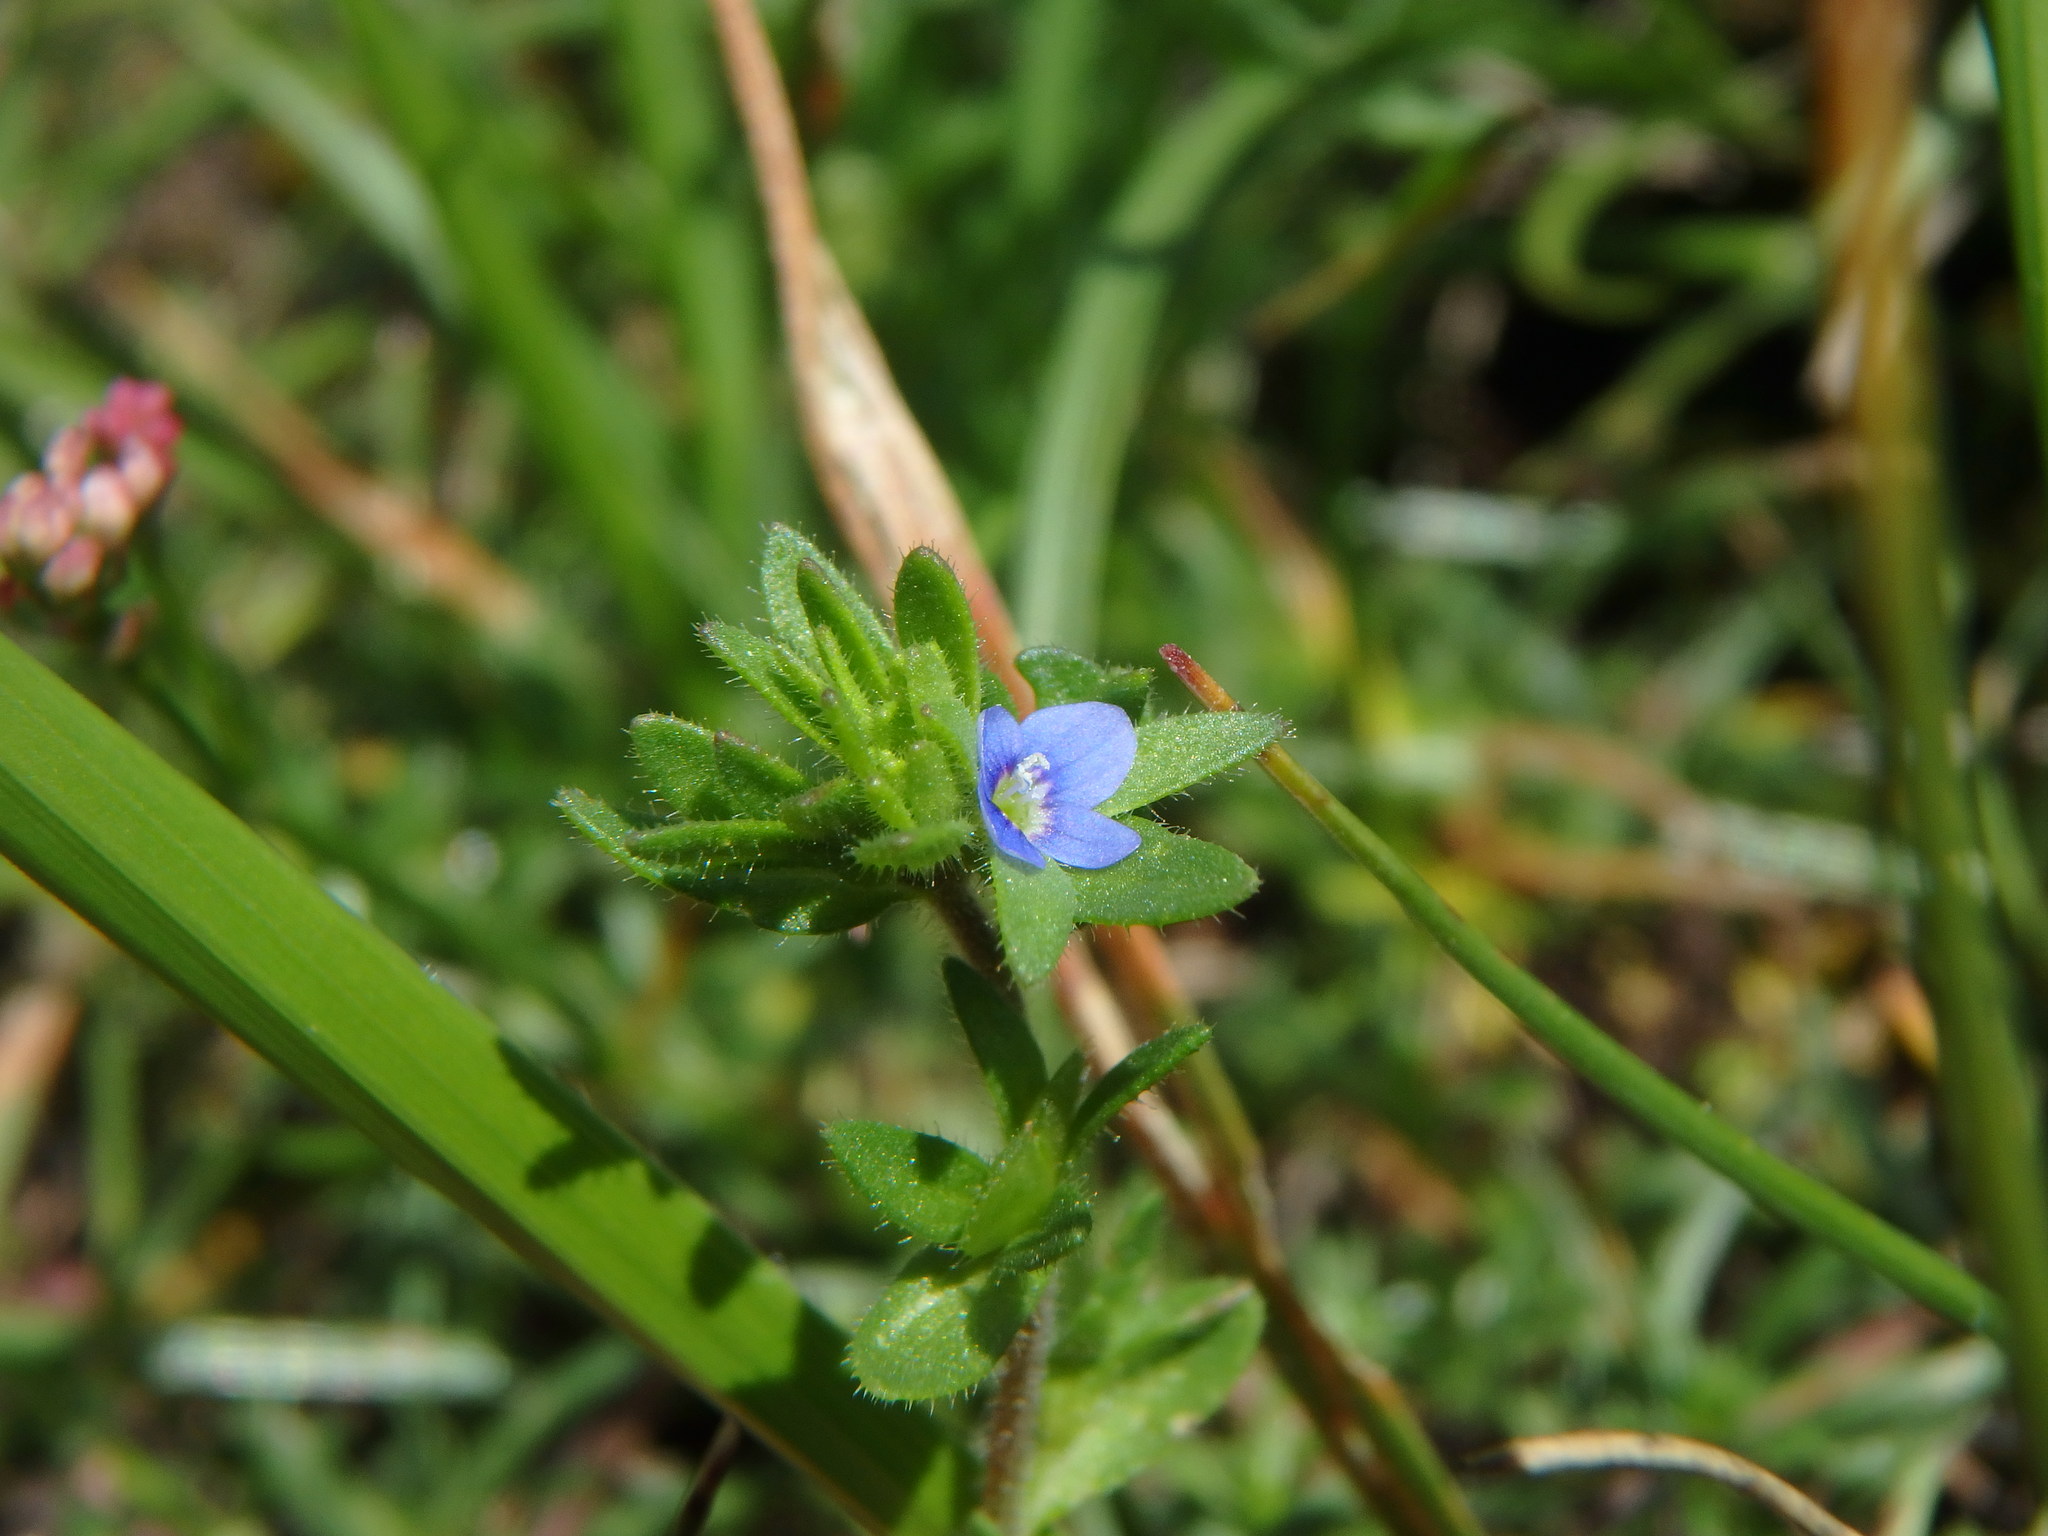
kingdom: Plantae
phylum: Tracheophyta
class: Magnoliopsida
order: Lamiales
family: Plantaginaceae
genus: Veronica
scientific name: Veronica arvensis
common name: Corn speedwell
